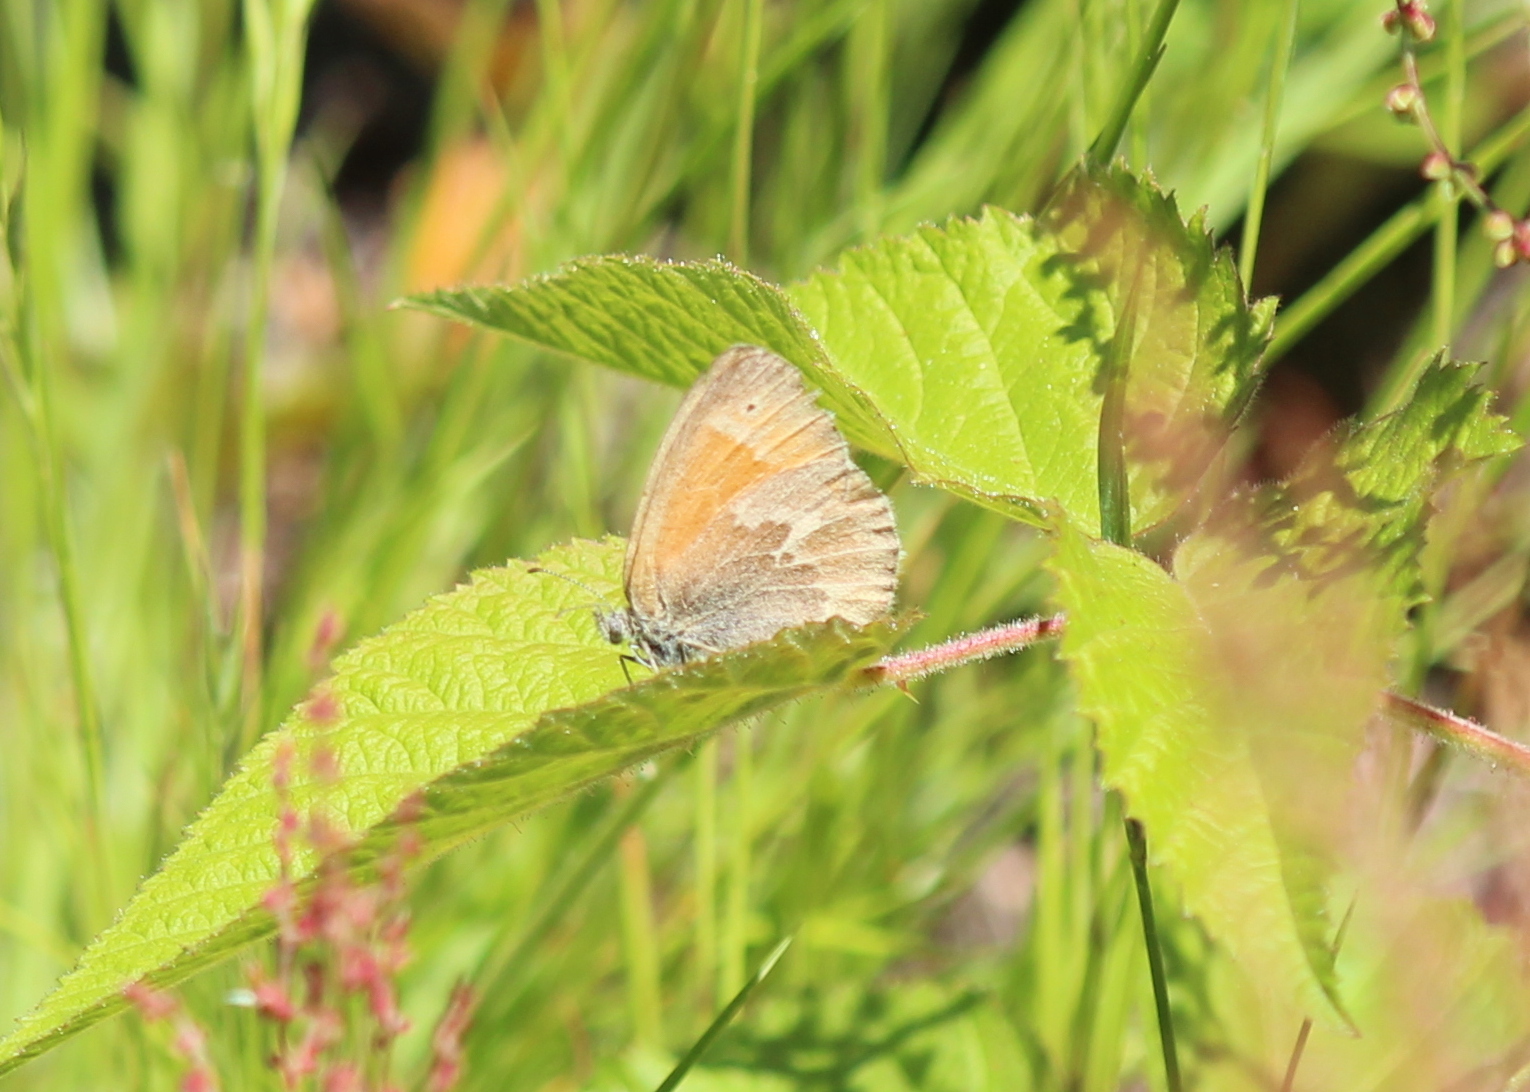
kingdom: Animalia
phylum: Arthropoda
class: Insecta
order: Lepidoptera
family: Nymphalidae
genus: Coenonympha
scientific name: Coenonympha california
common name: Common ringlet
